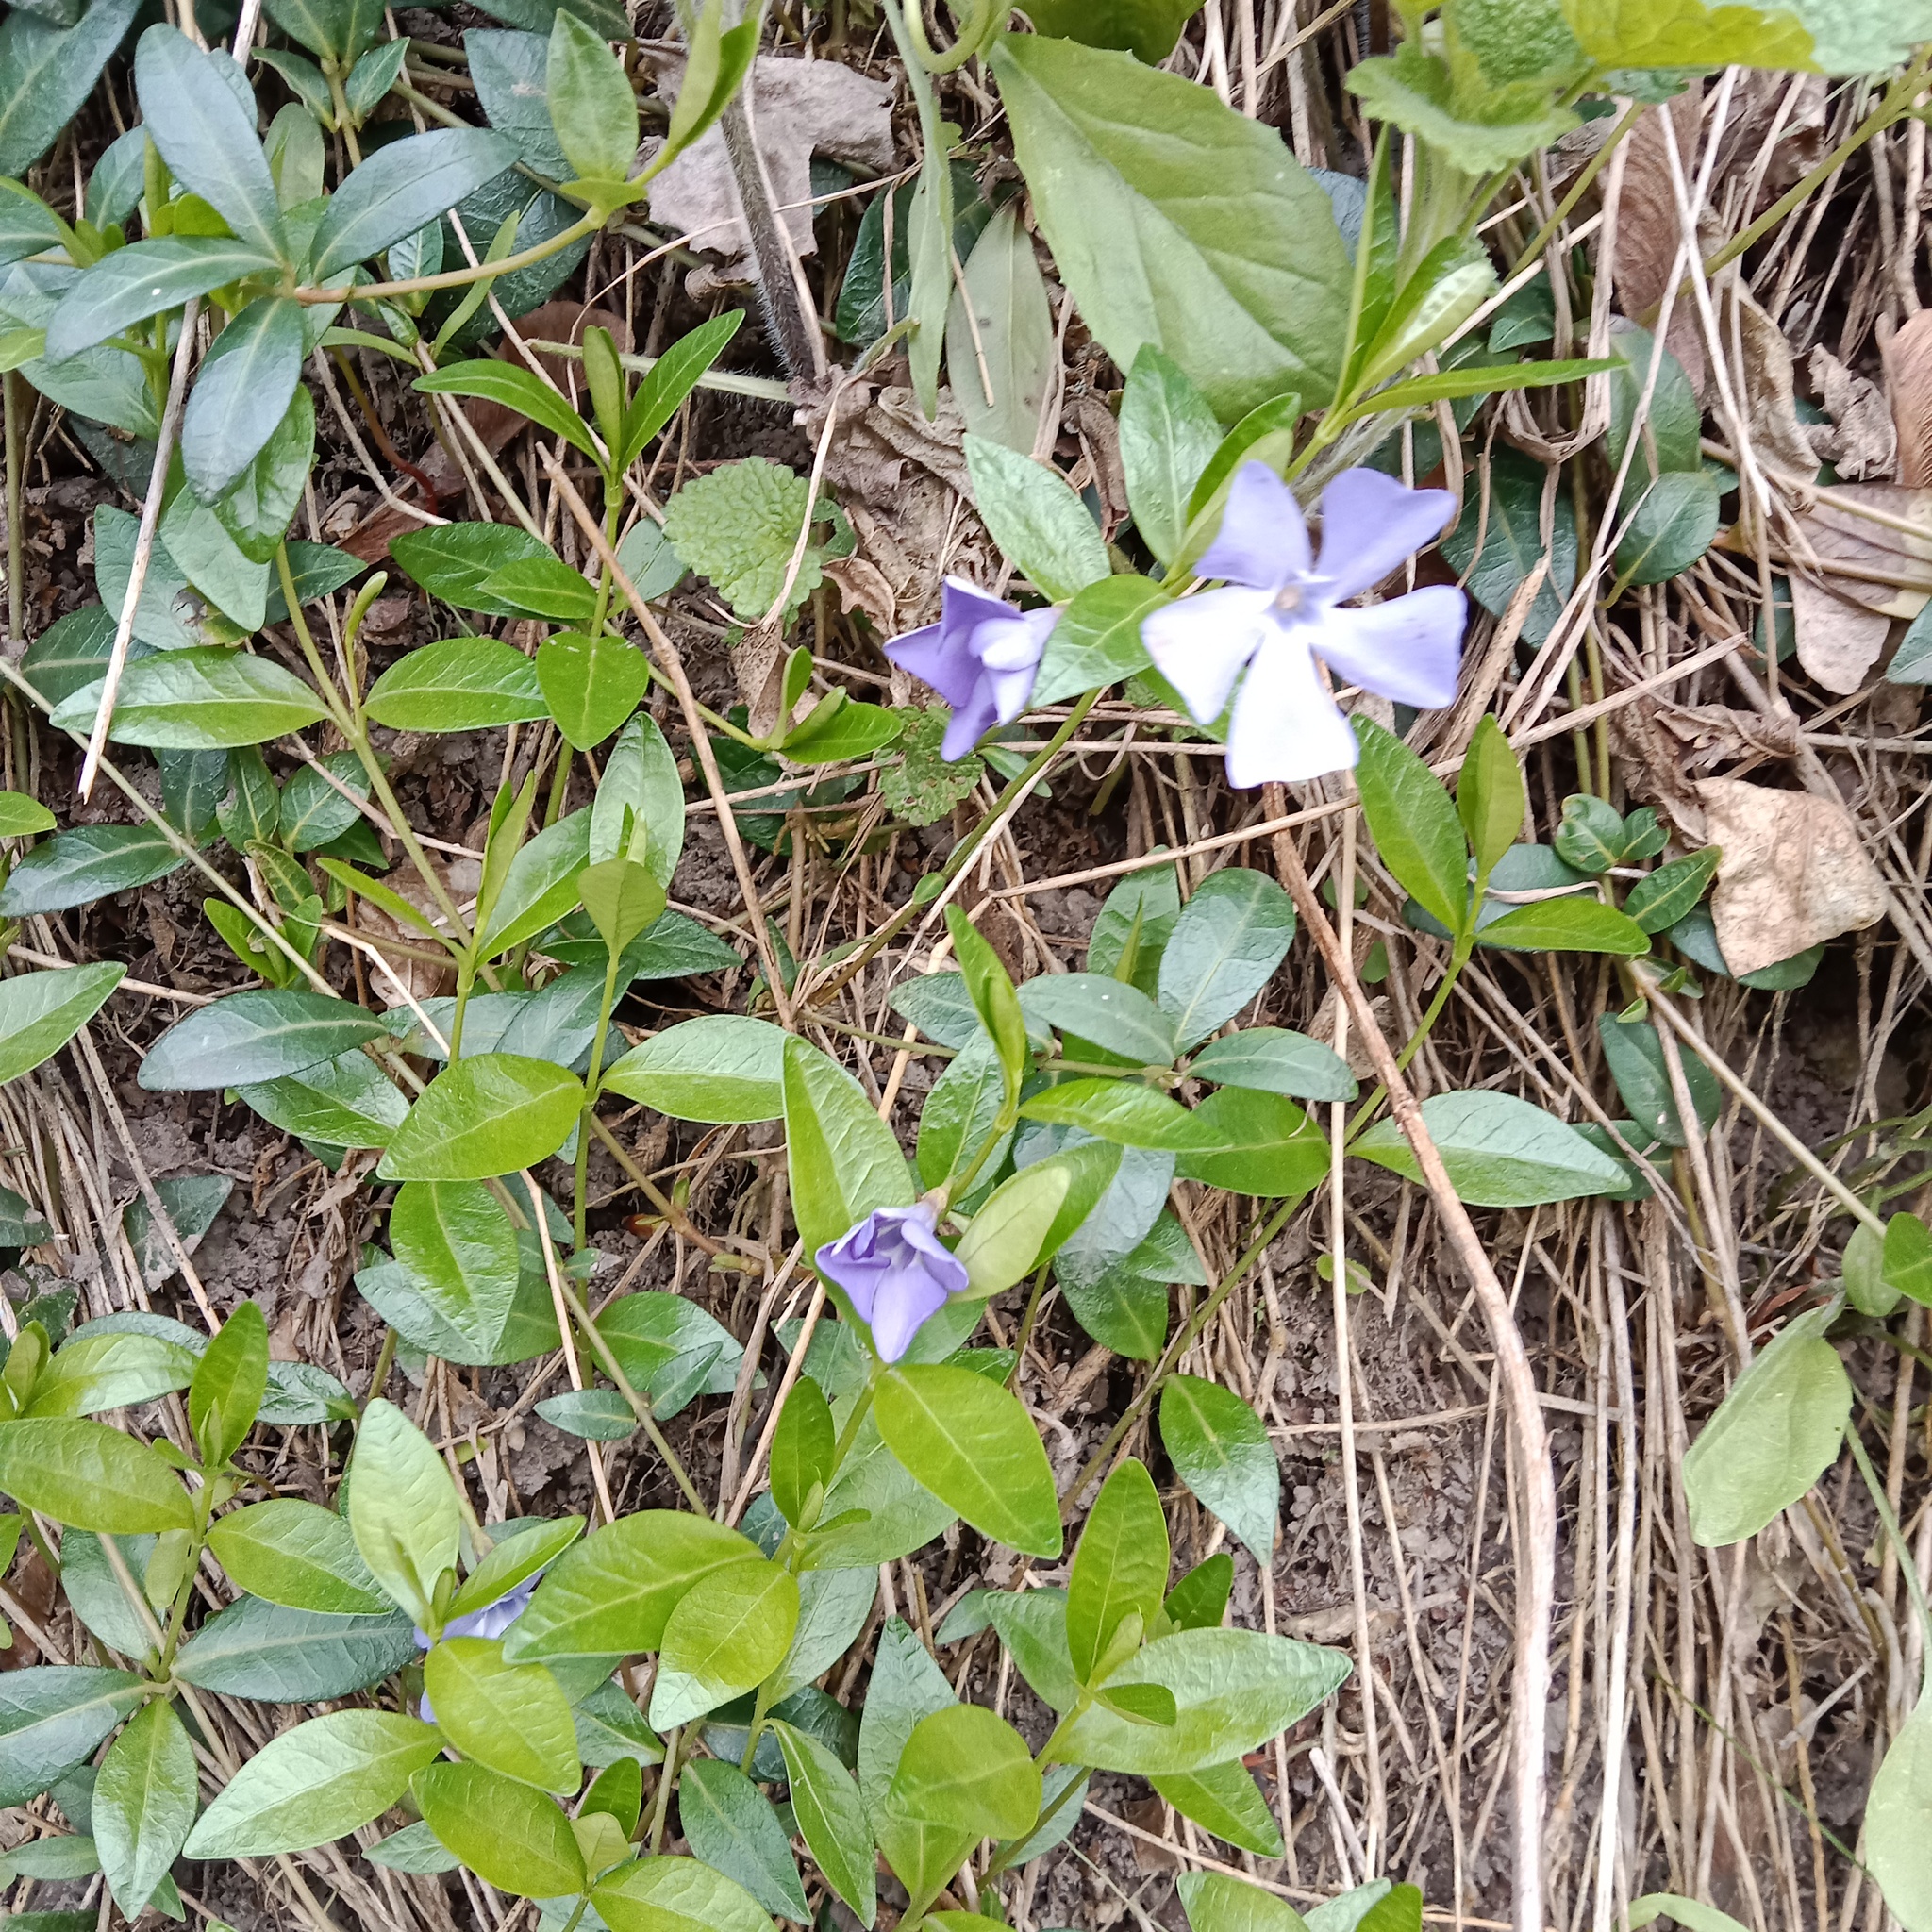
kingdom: Plantae
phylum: Tracheophyta
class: Magnoliopsida
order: Gentianales
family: Apocynaceae
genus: Vinca
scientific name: Vinca minor
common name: Lesser periwinkle
